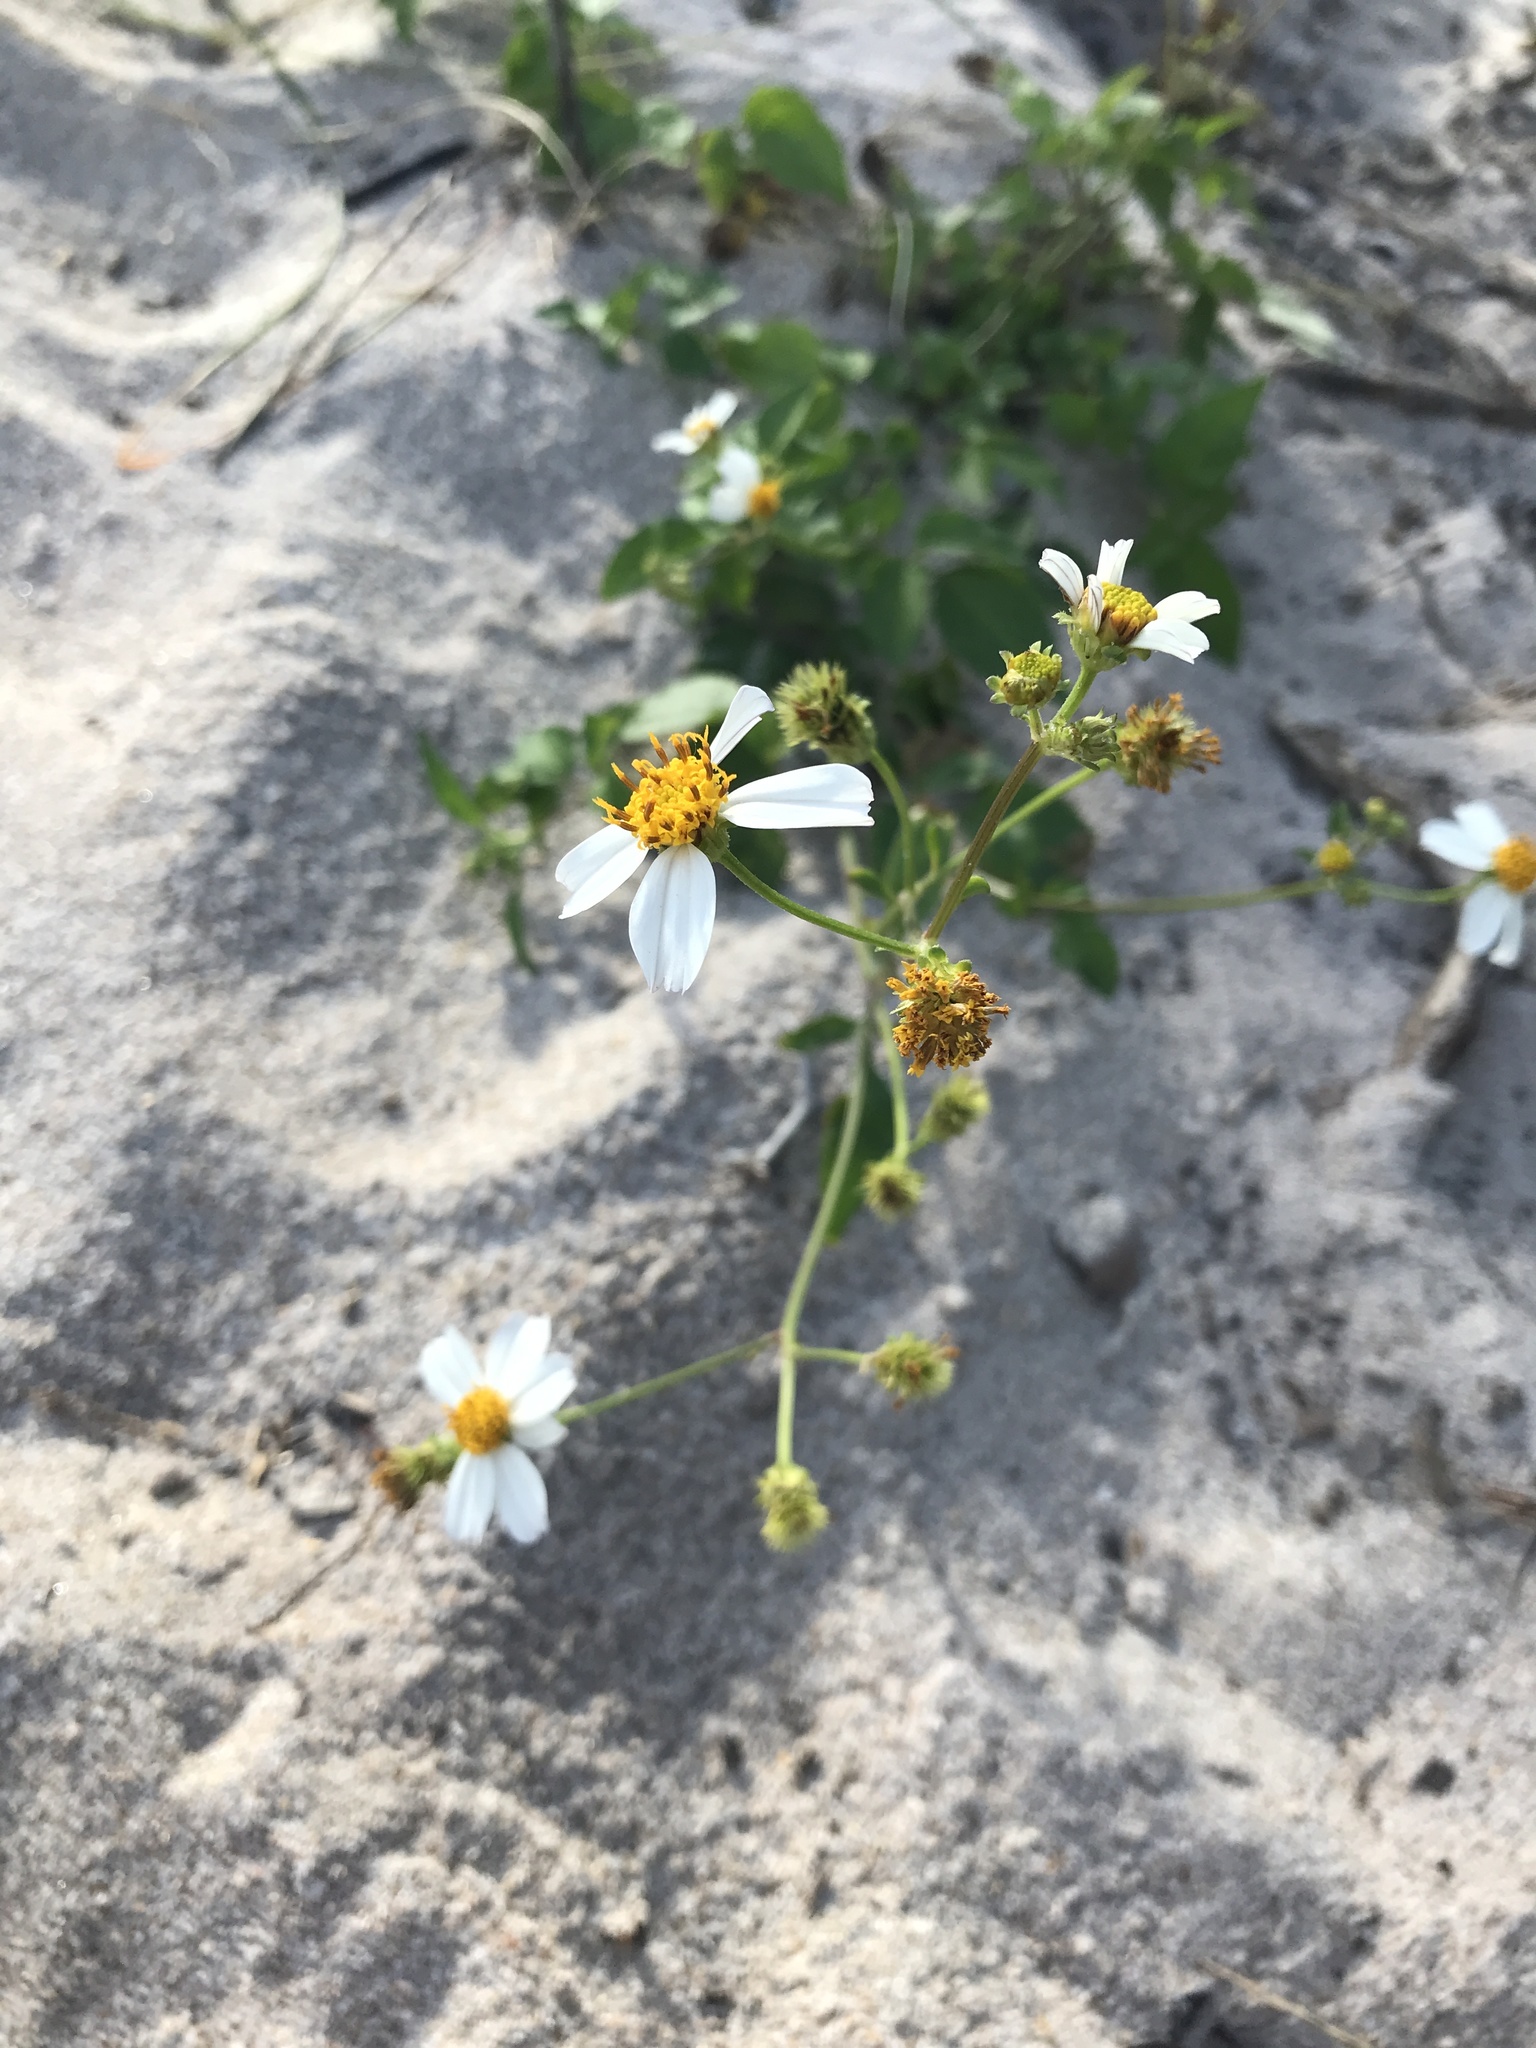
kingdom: Plantae
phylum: Tracheophyta
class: Magnoliopsida
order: Asterales
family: Asteraceae
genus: Bidens
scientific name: Bidens alba
